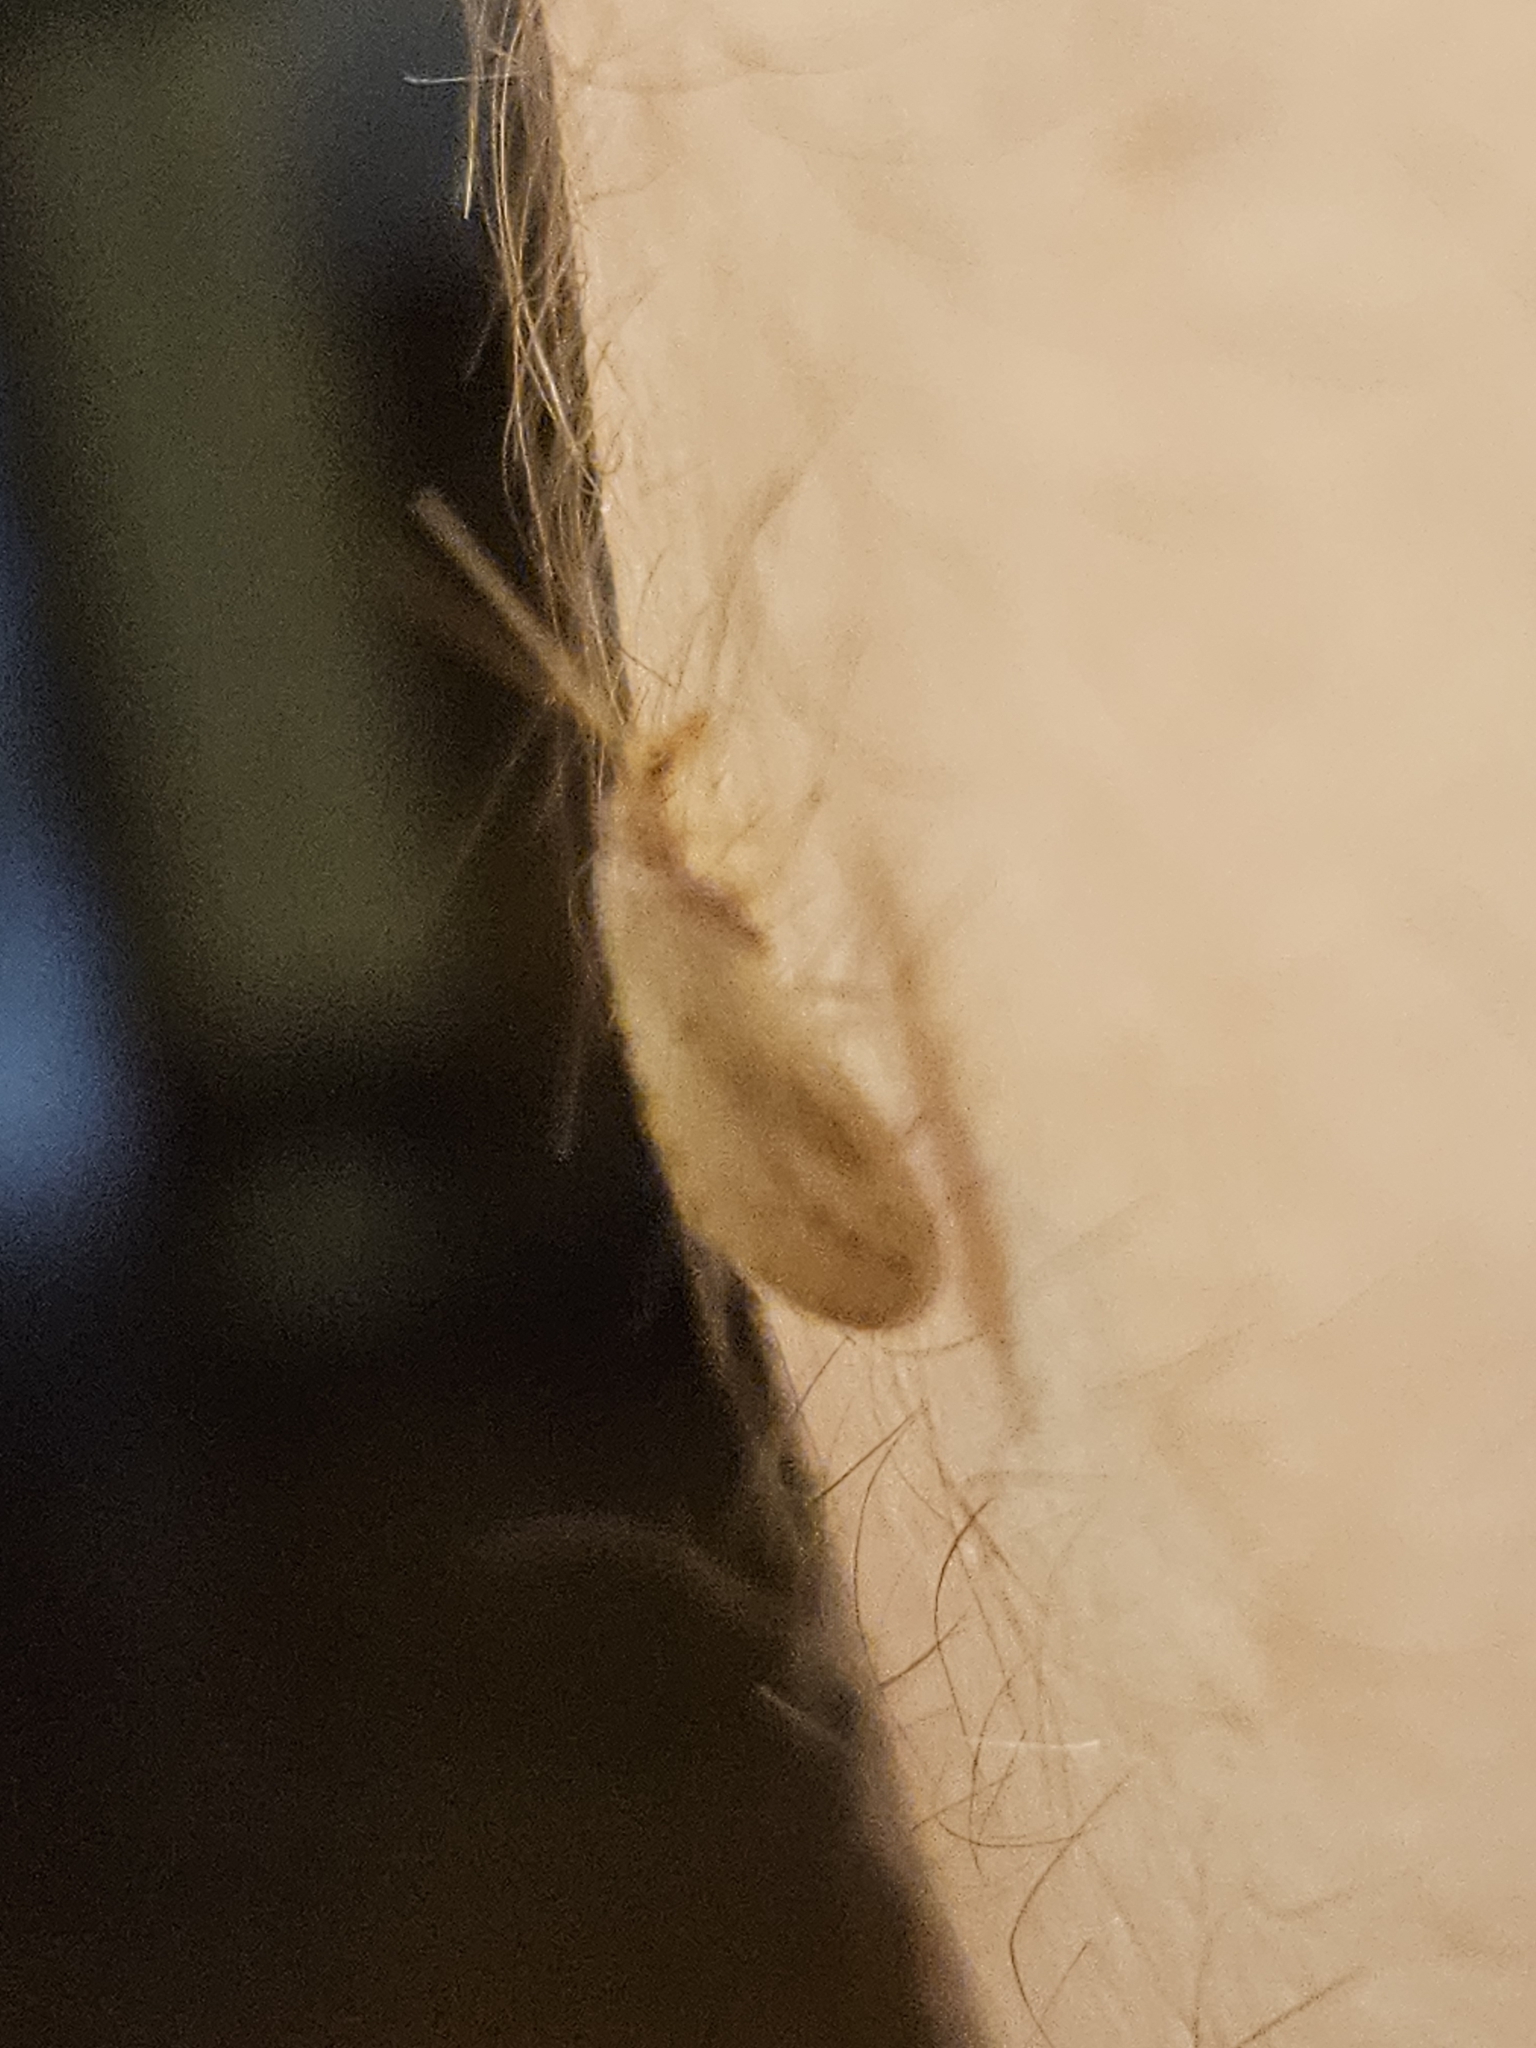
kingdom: Animalia
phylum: Arthropoda
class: Insecta
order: Neuroptera
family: Hemerobiidae
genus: Micromus
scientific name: Micromus subanticus
